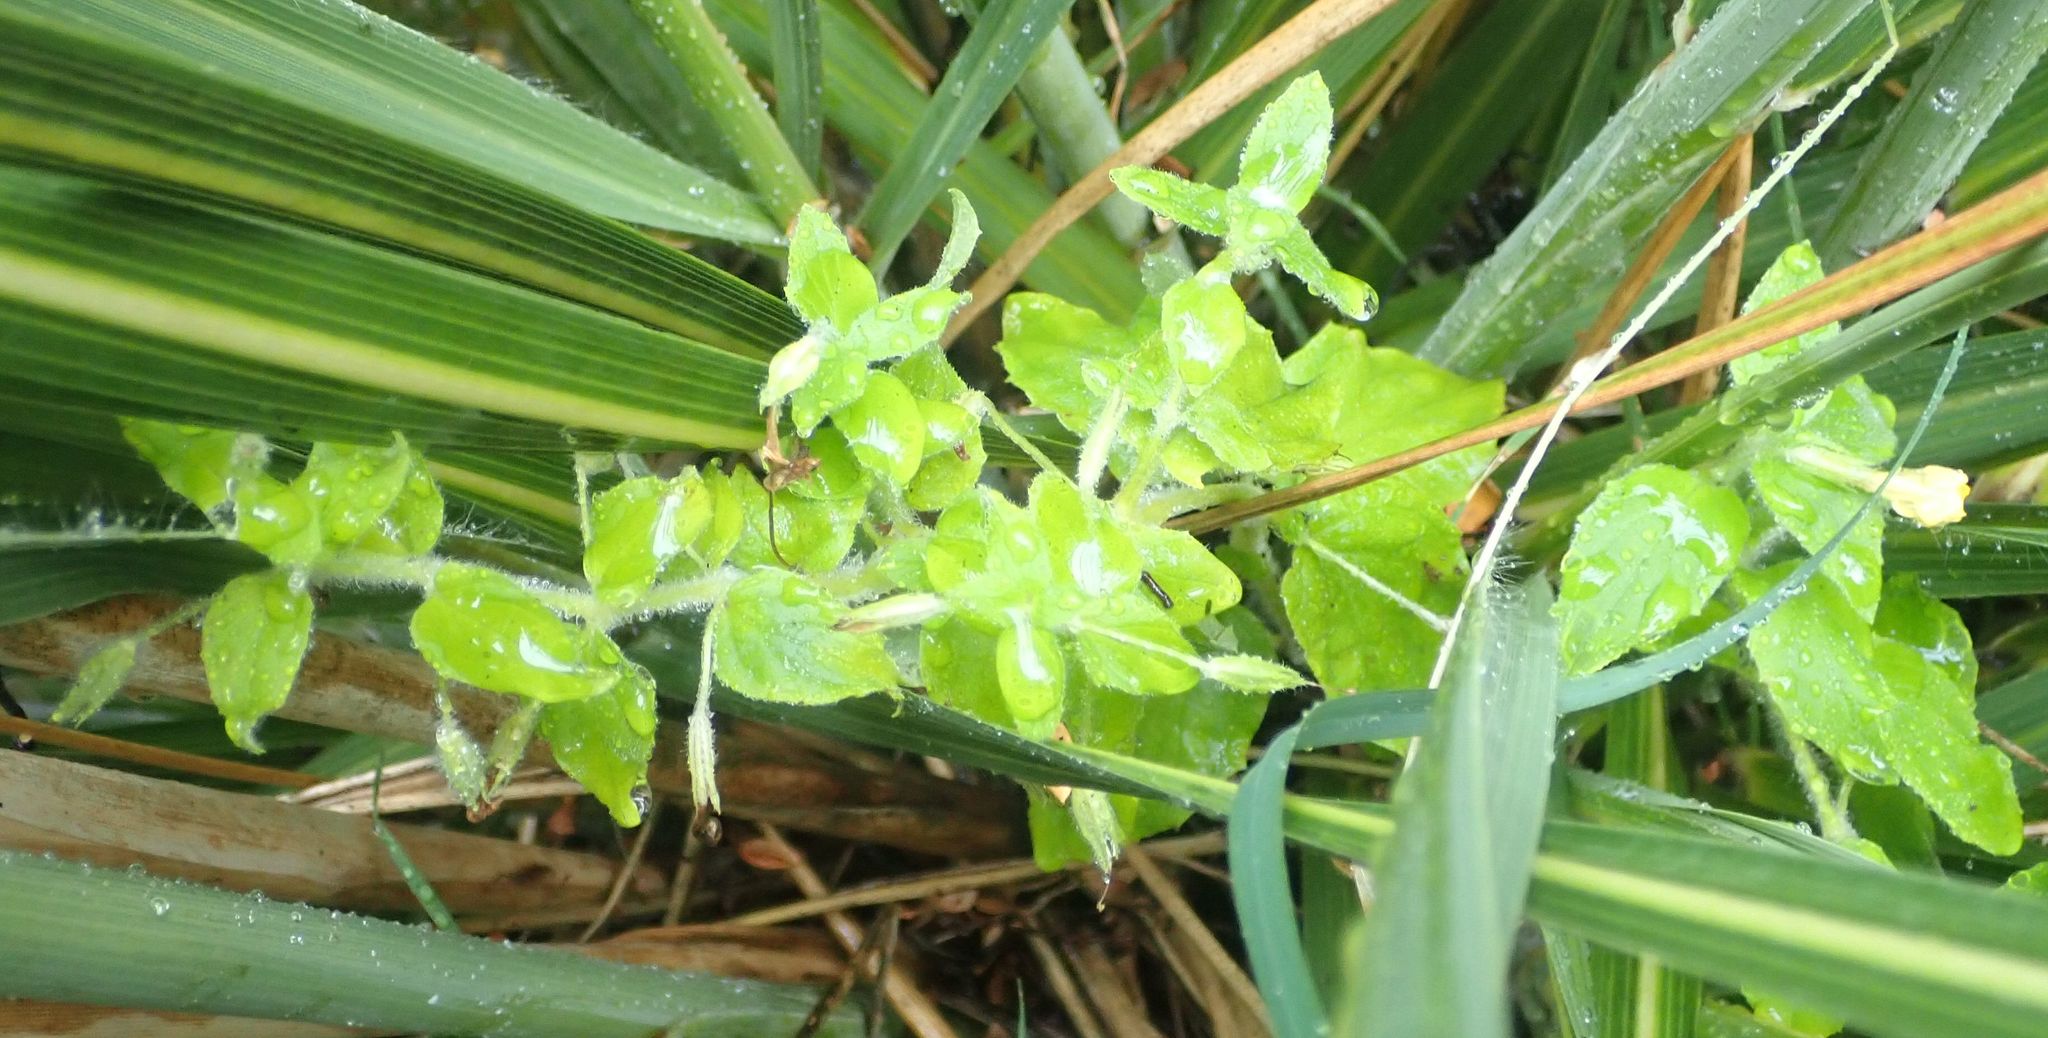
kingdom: Plantae
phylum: Tracheophyta
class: Magnoliopsida
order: Lamiales
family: Phrymaceae
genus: Erythranthe
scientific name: Erythranthe moschata
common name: Muskflower
